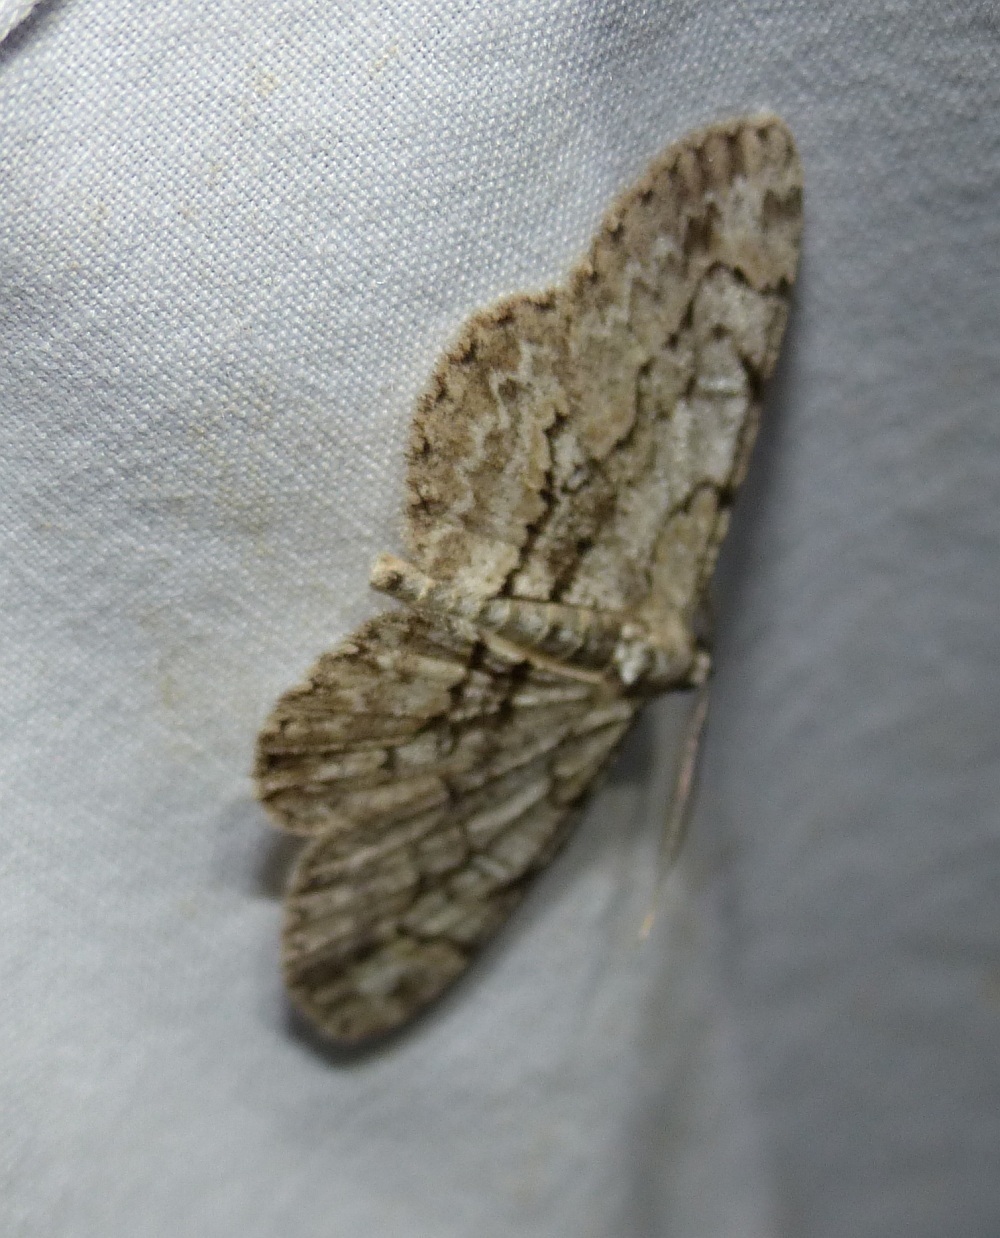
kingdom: Animalia
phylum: Arthropoda
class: Insecta
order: Lepidoptera
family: Geometridae
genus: Iridopsis
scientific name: Iridopsis ephyraria
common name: Pale-winged gray
